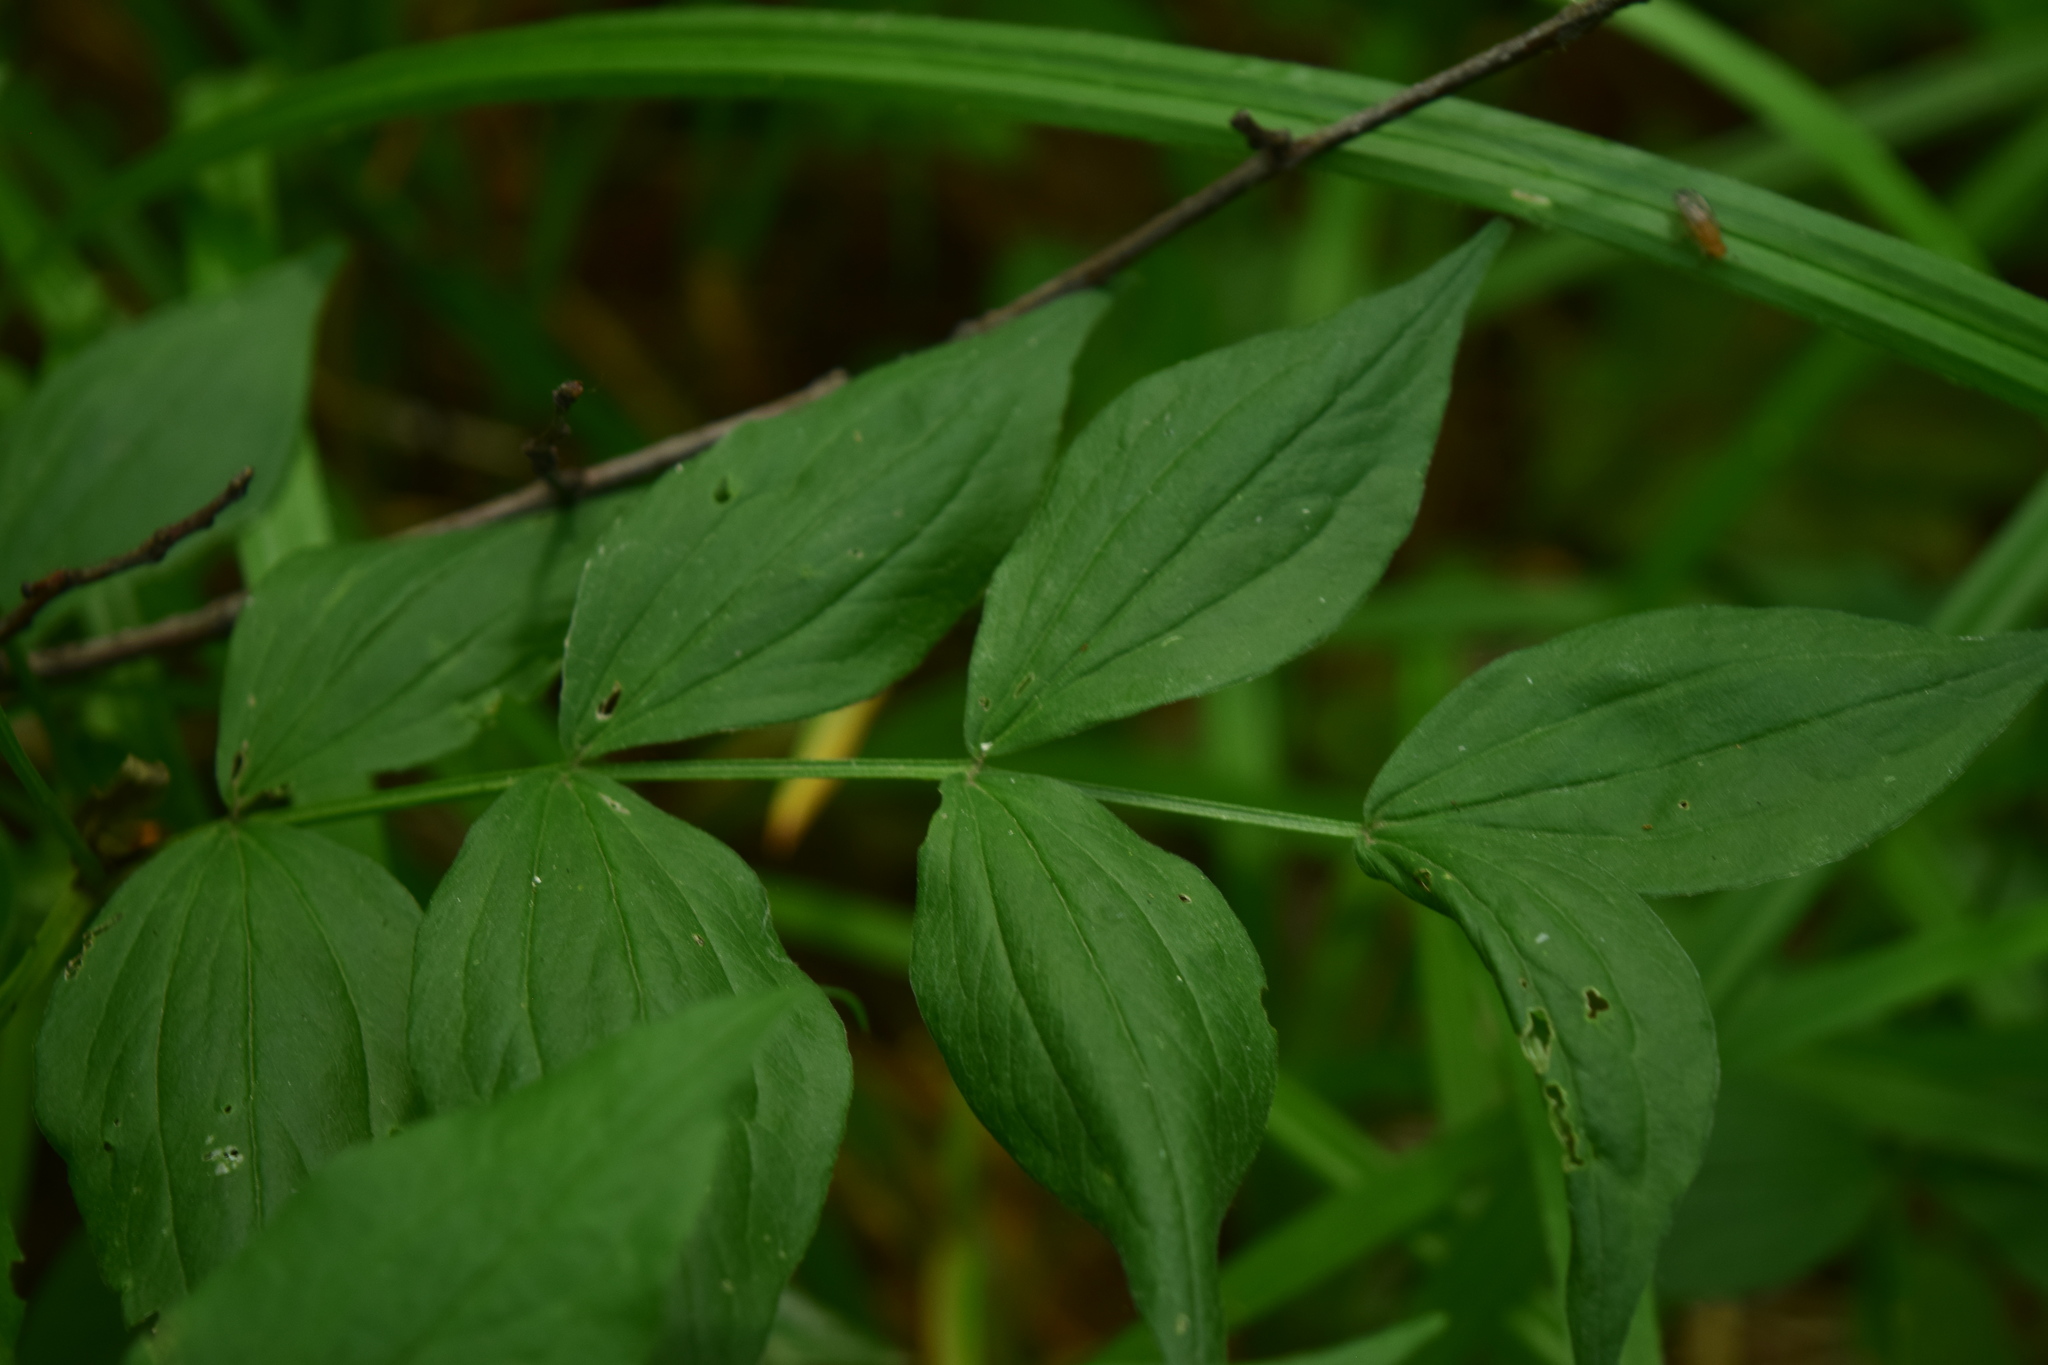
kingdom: Plantae
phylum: Tracheophyta
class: Magnoliopsida
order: Fabales
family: Fabaceae
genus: Lathyrus
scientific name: Lathyrus vernus
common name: Spring pea
